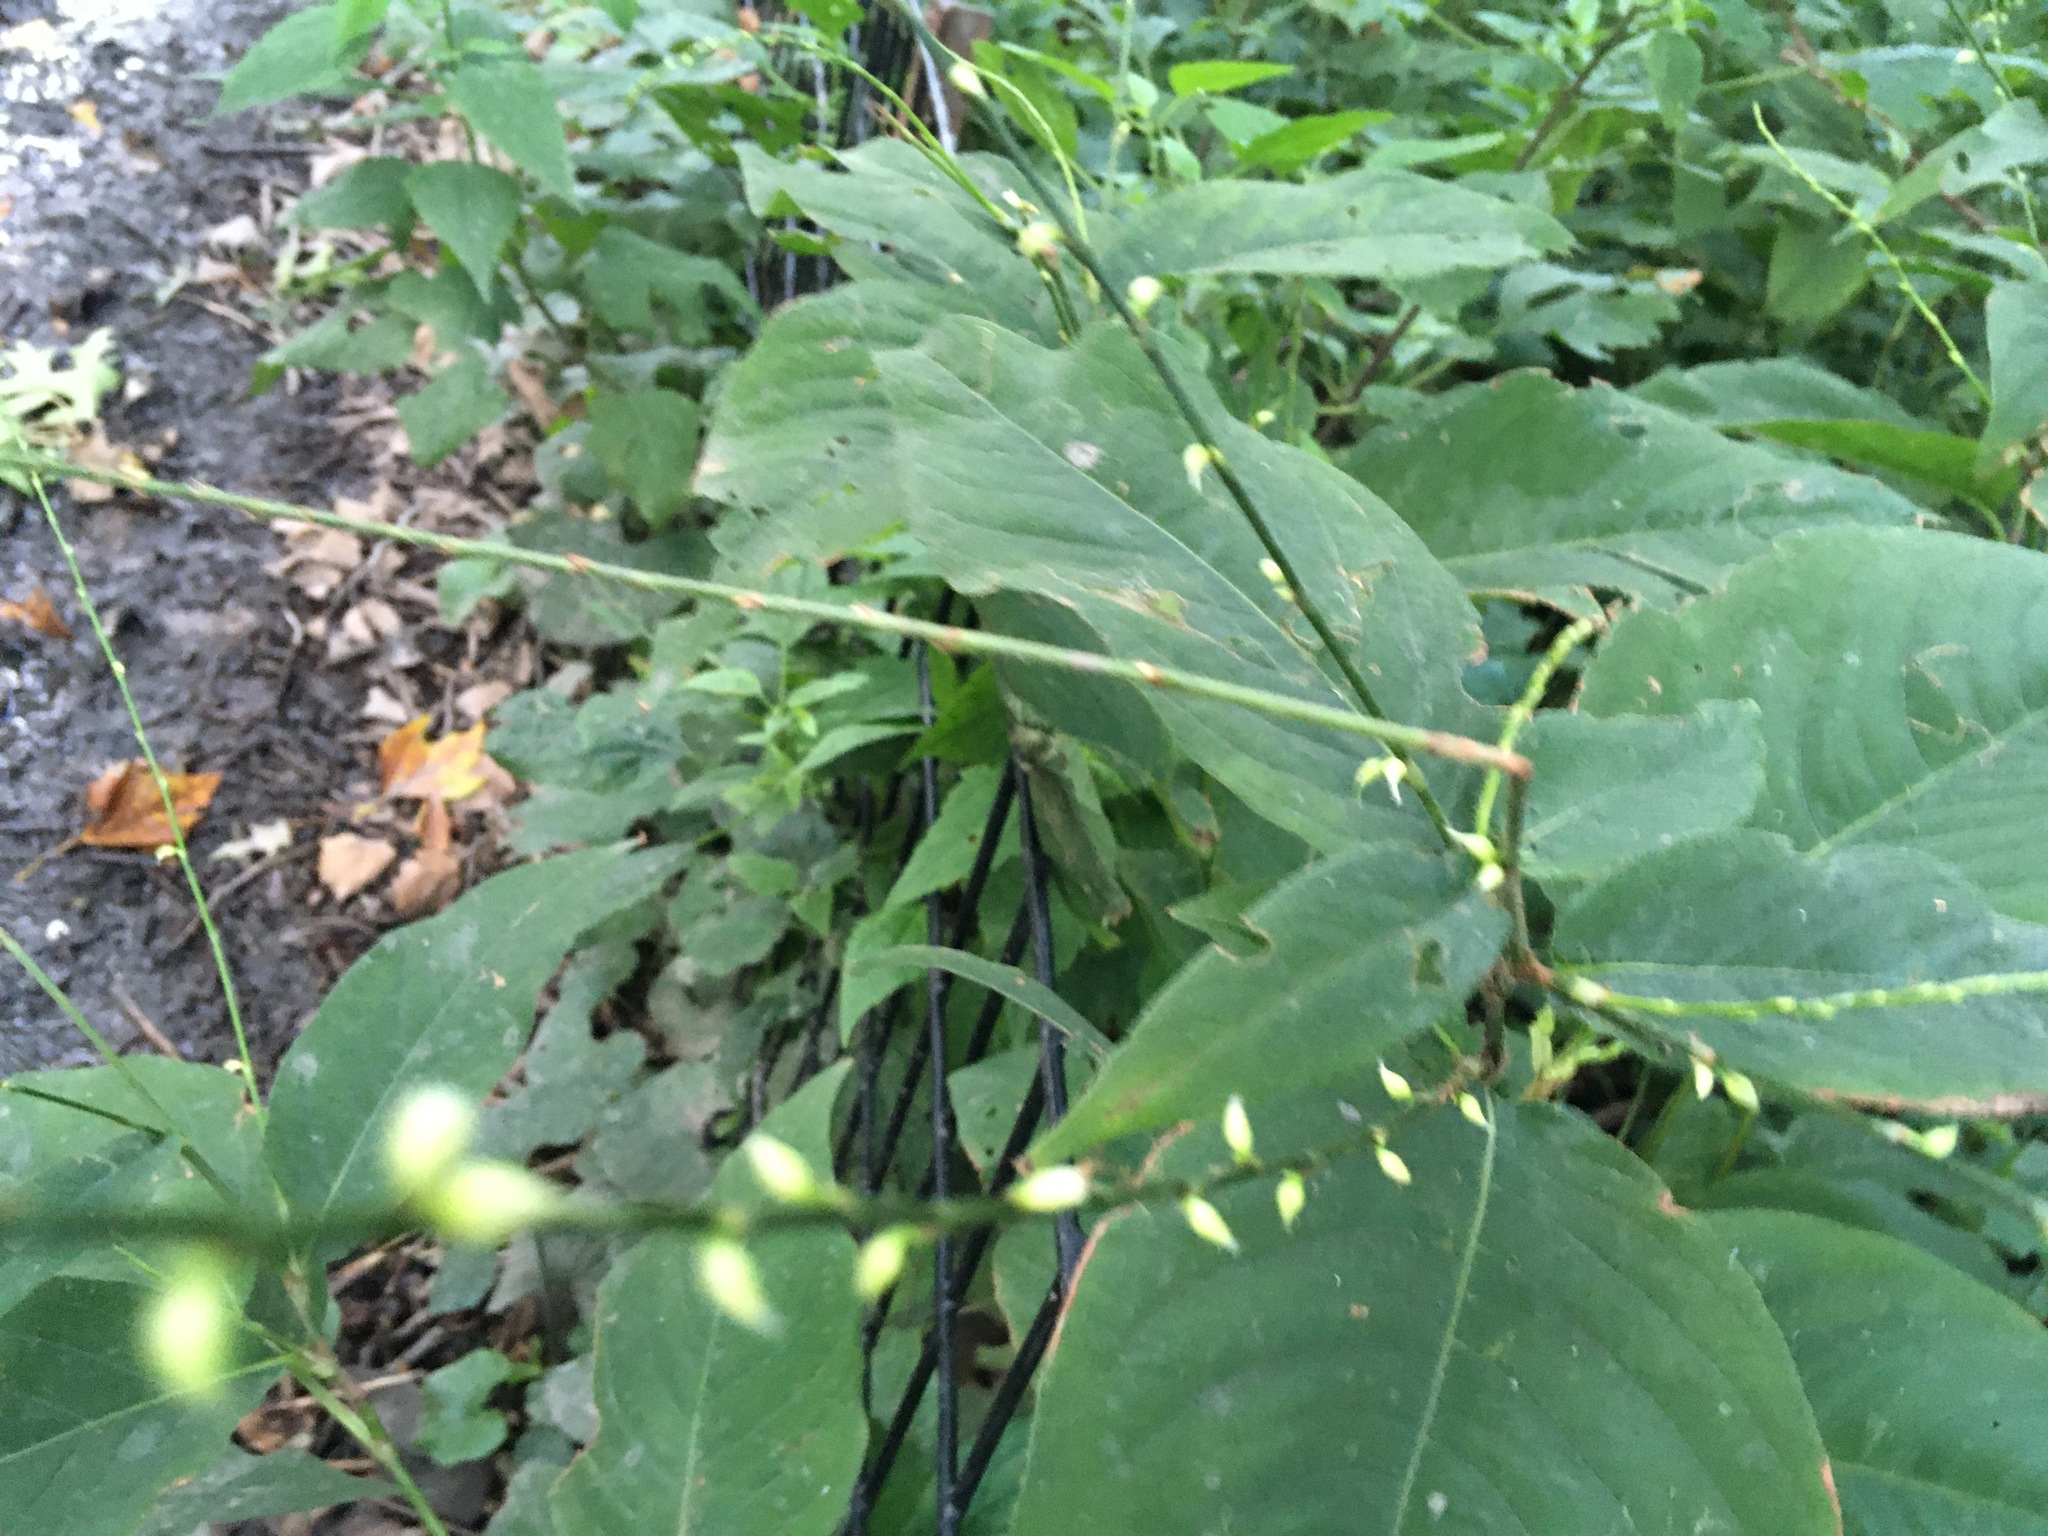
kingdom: Plantae
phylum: Tracheophyta
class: Magnoliopsida
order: Caryophyllales
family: Polygonaceae
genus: Persicaria
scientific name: Persicaria virginiana
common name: Jumpseed
